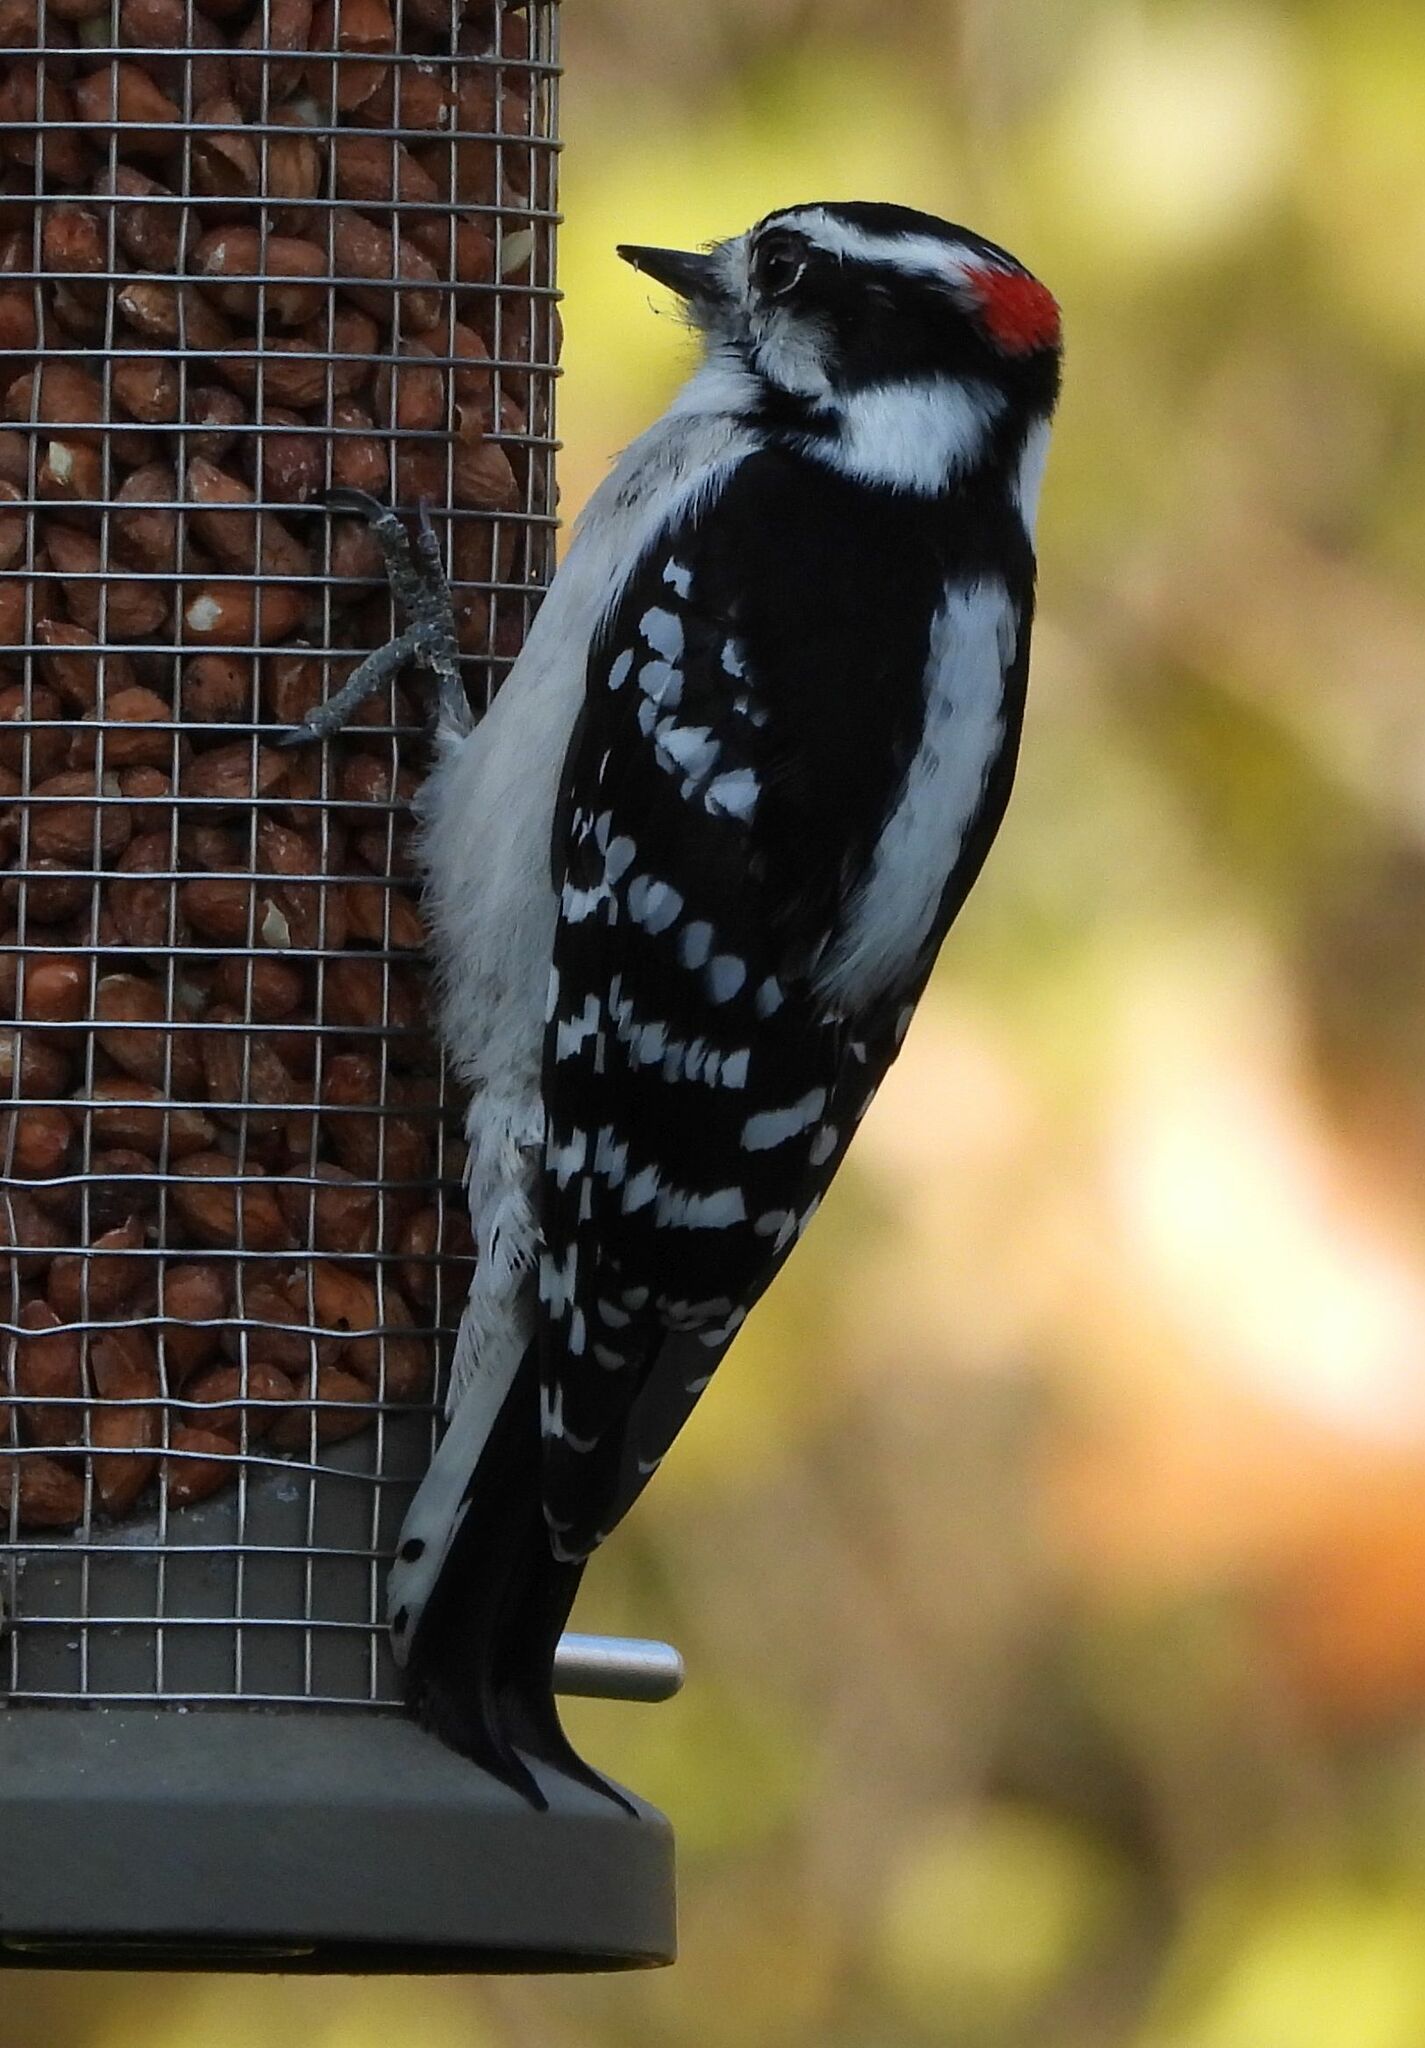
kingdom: Animalia
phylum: Chordata
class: Aves
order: Piciformes
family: Picidae
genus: Dryobates
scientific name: Dryobates pubescens
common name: Downy woodpecker
